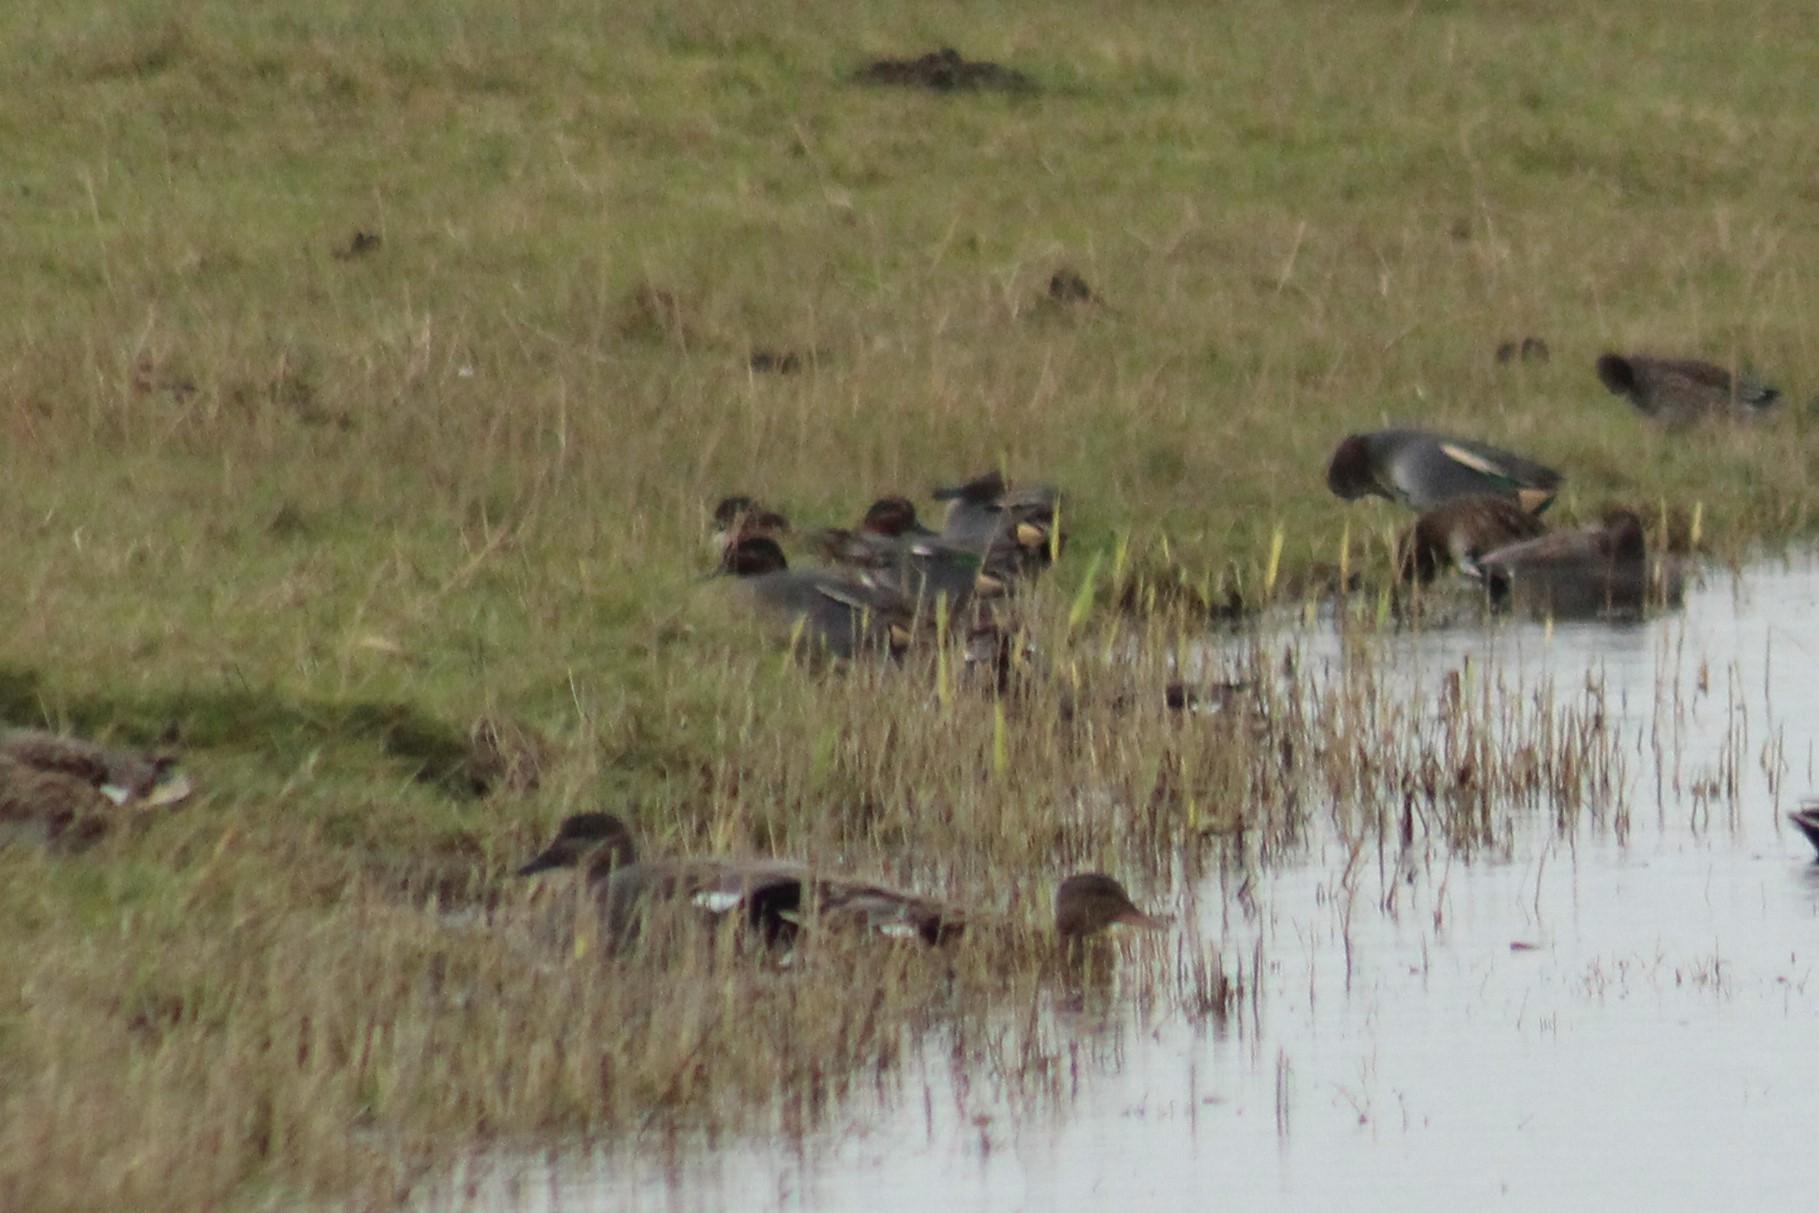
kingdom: Animalia
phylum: Chordata
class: Aves
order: Anseriformes
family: Anatidae
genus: Anas
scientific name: Anas crecca
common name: Eurasian teal
